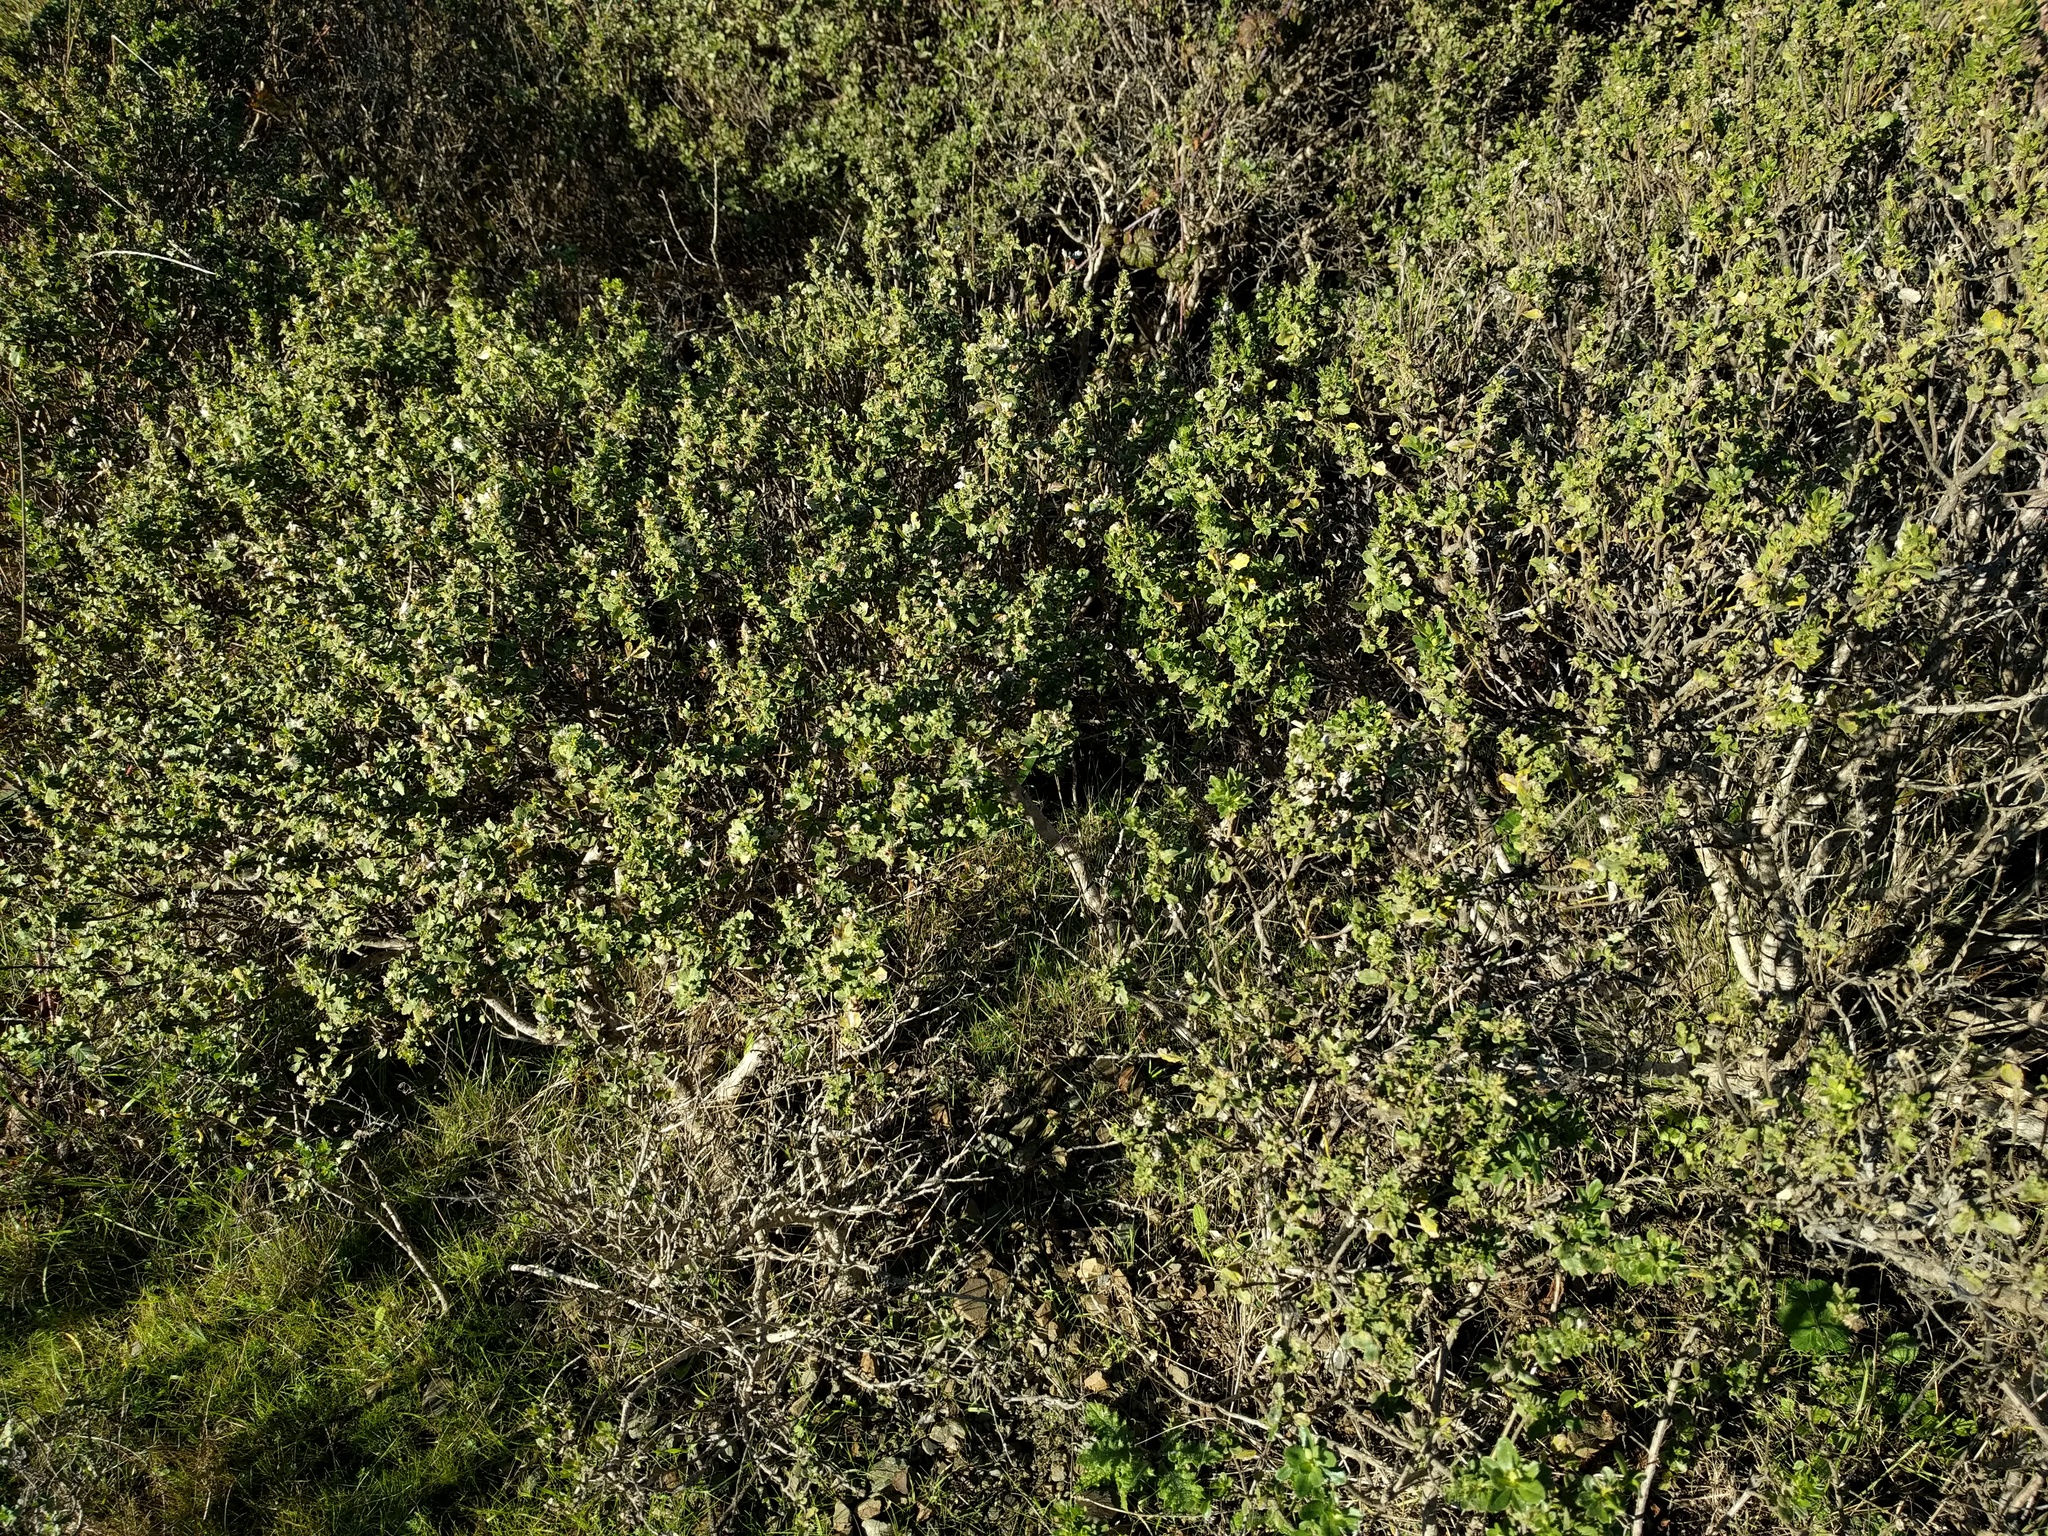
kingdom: Plantae
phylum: Tracheophyta
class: Magnoliopsida
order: Asterales
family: Asteraceae
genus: Baccharis
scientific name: Baccharis pilularis
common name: Coyotebrush
